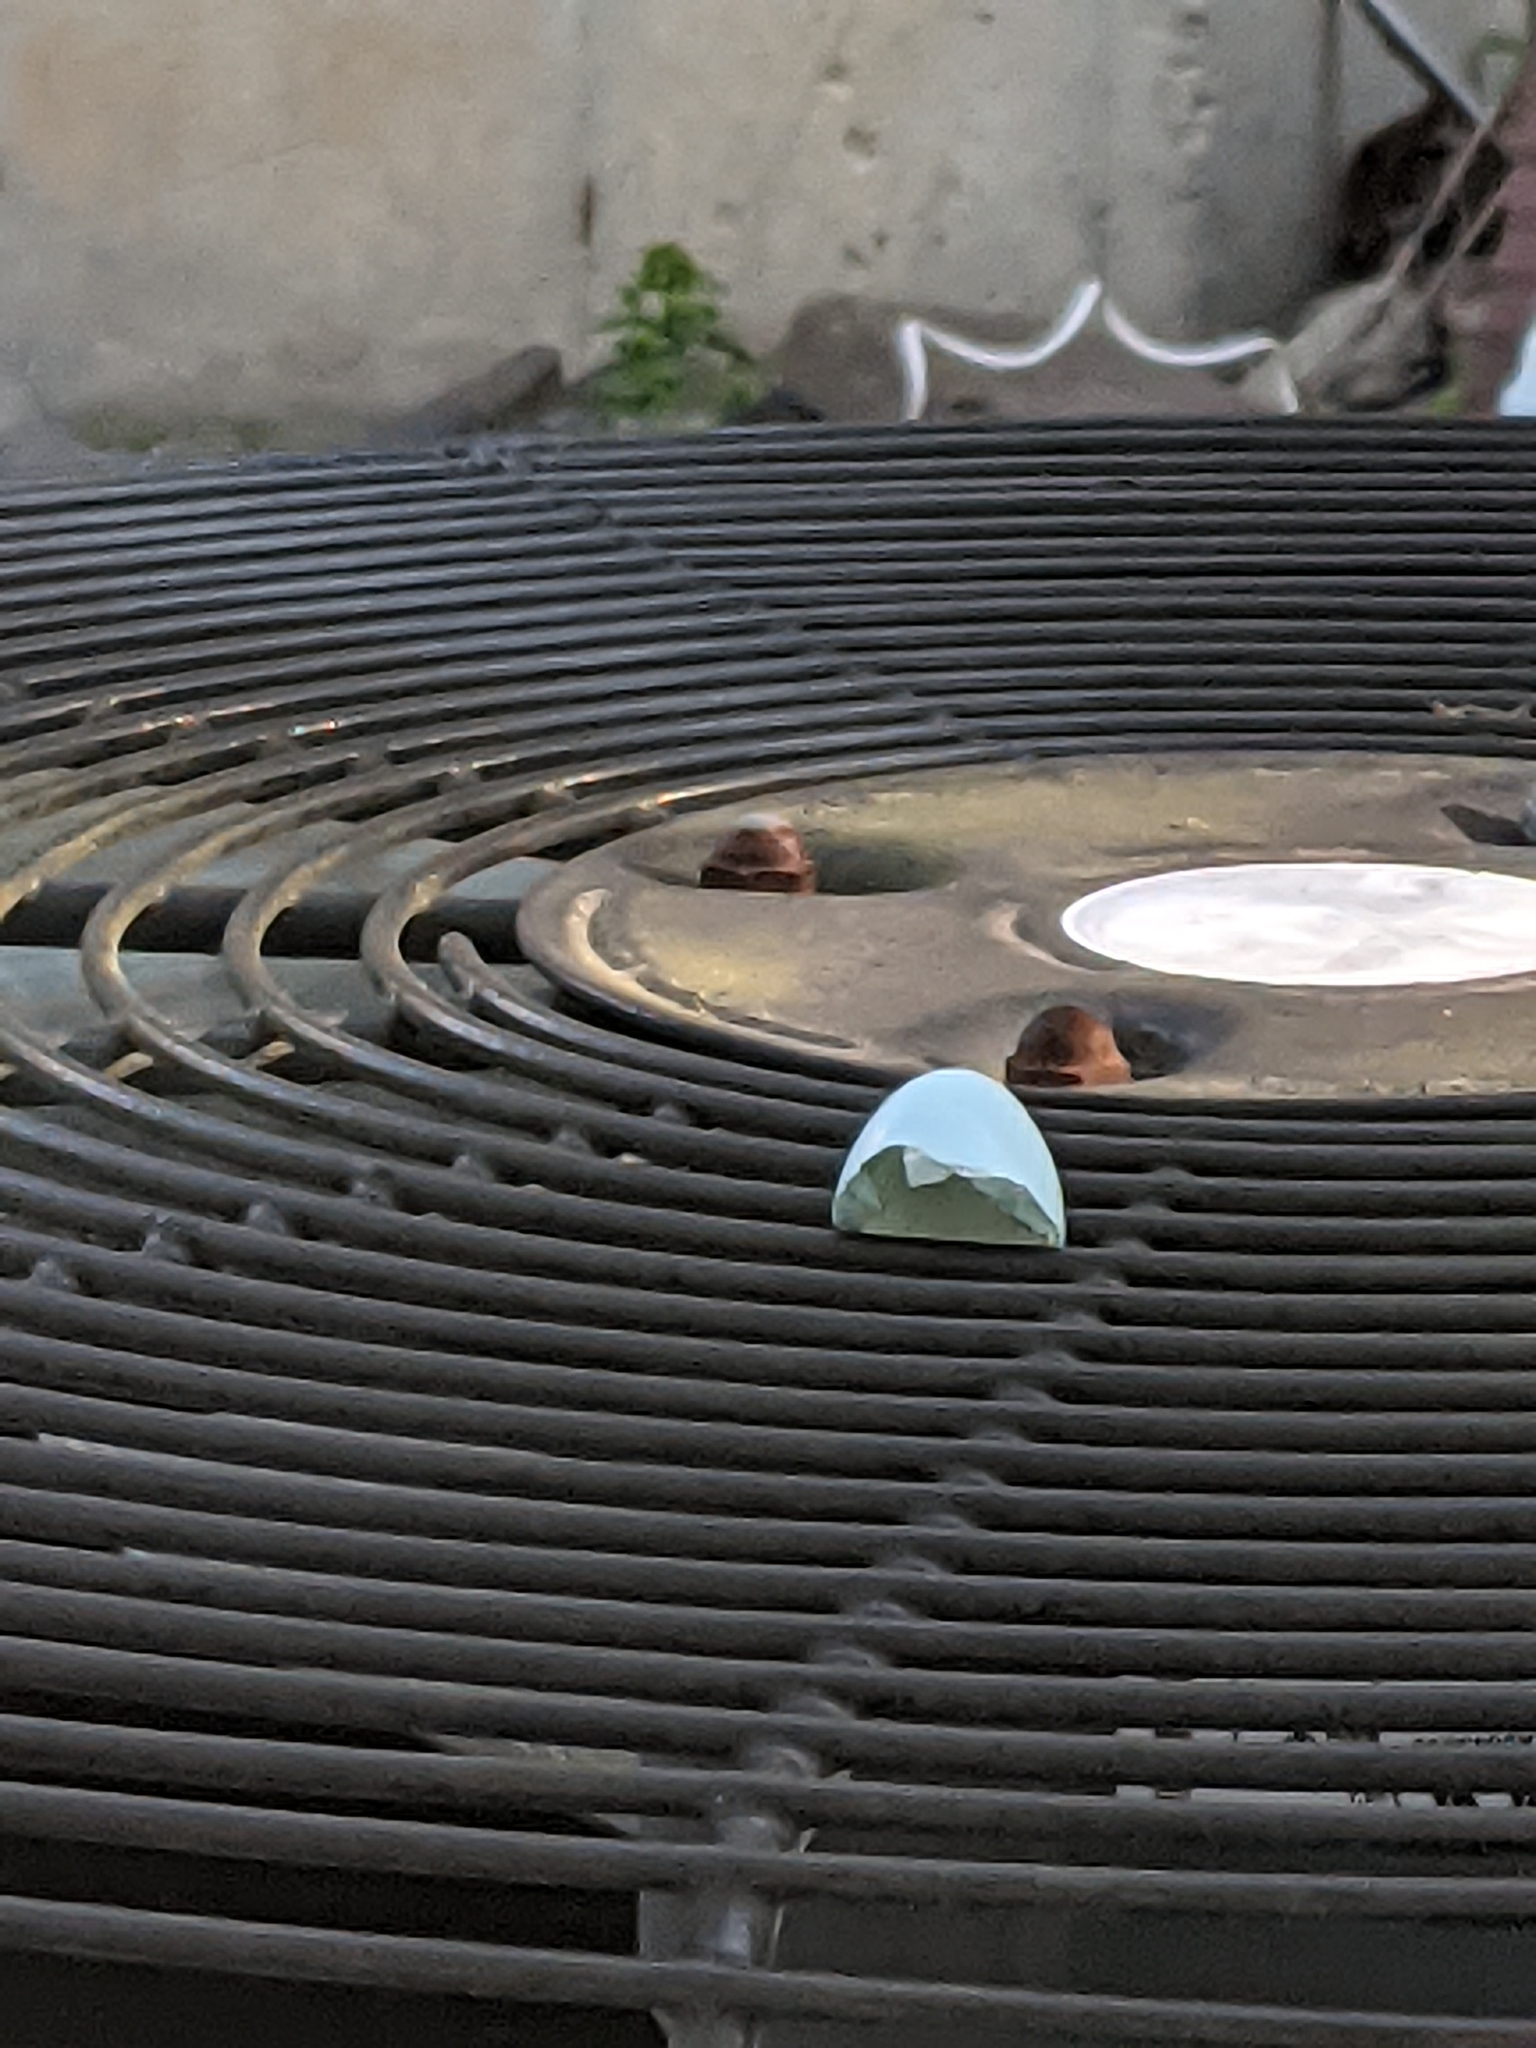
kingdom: Animalia
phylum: Chordata
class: Aves
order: Passeriformes
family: Turdidae
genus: Turdus
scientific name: Turdus migratorius
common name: American robin
